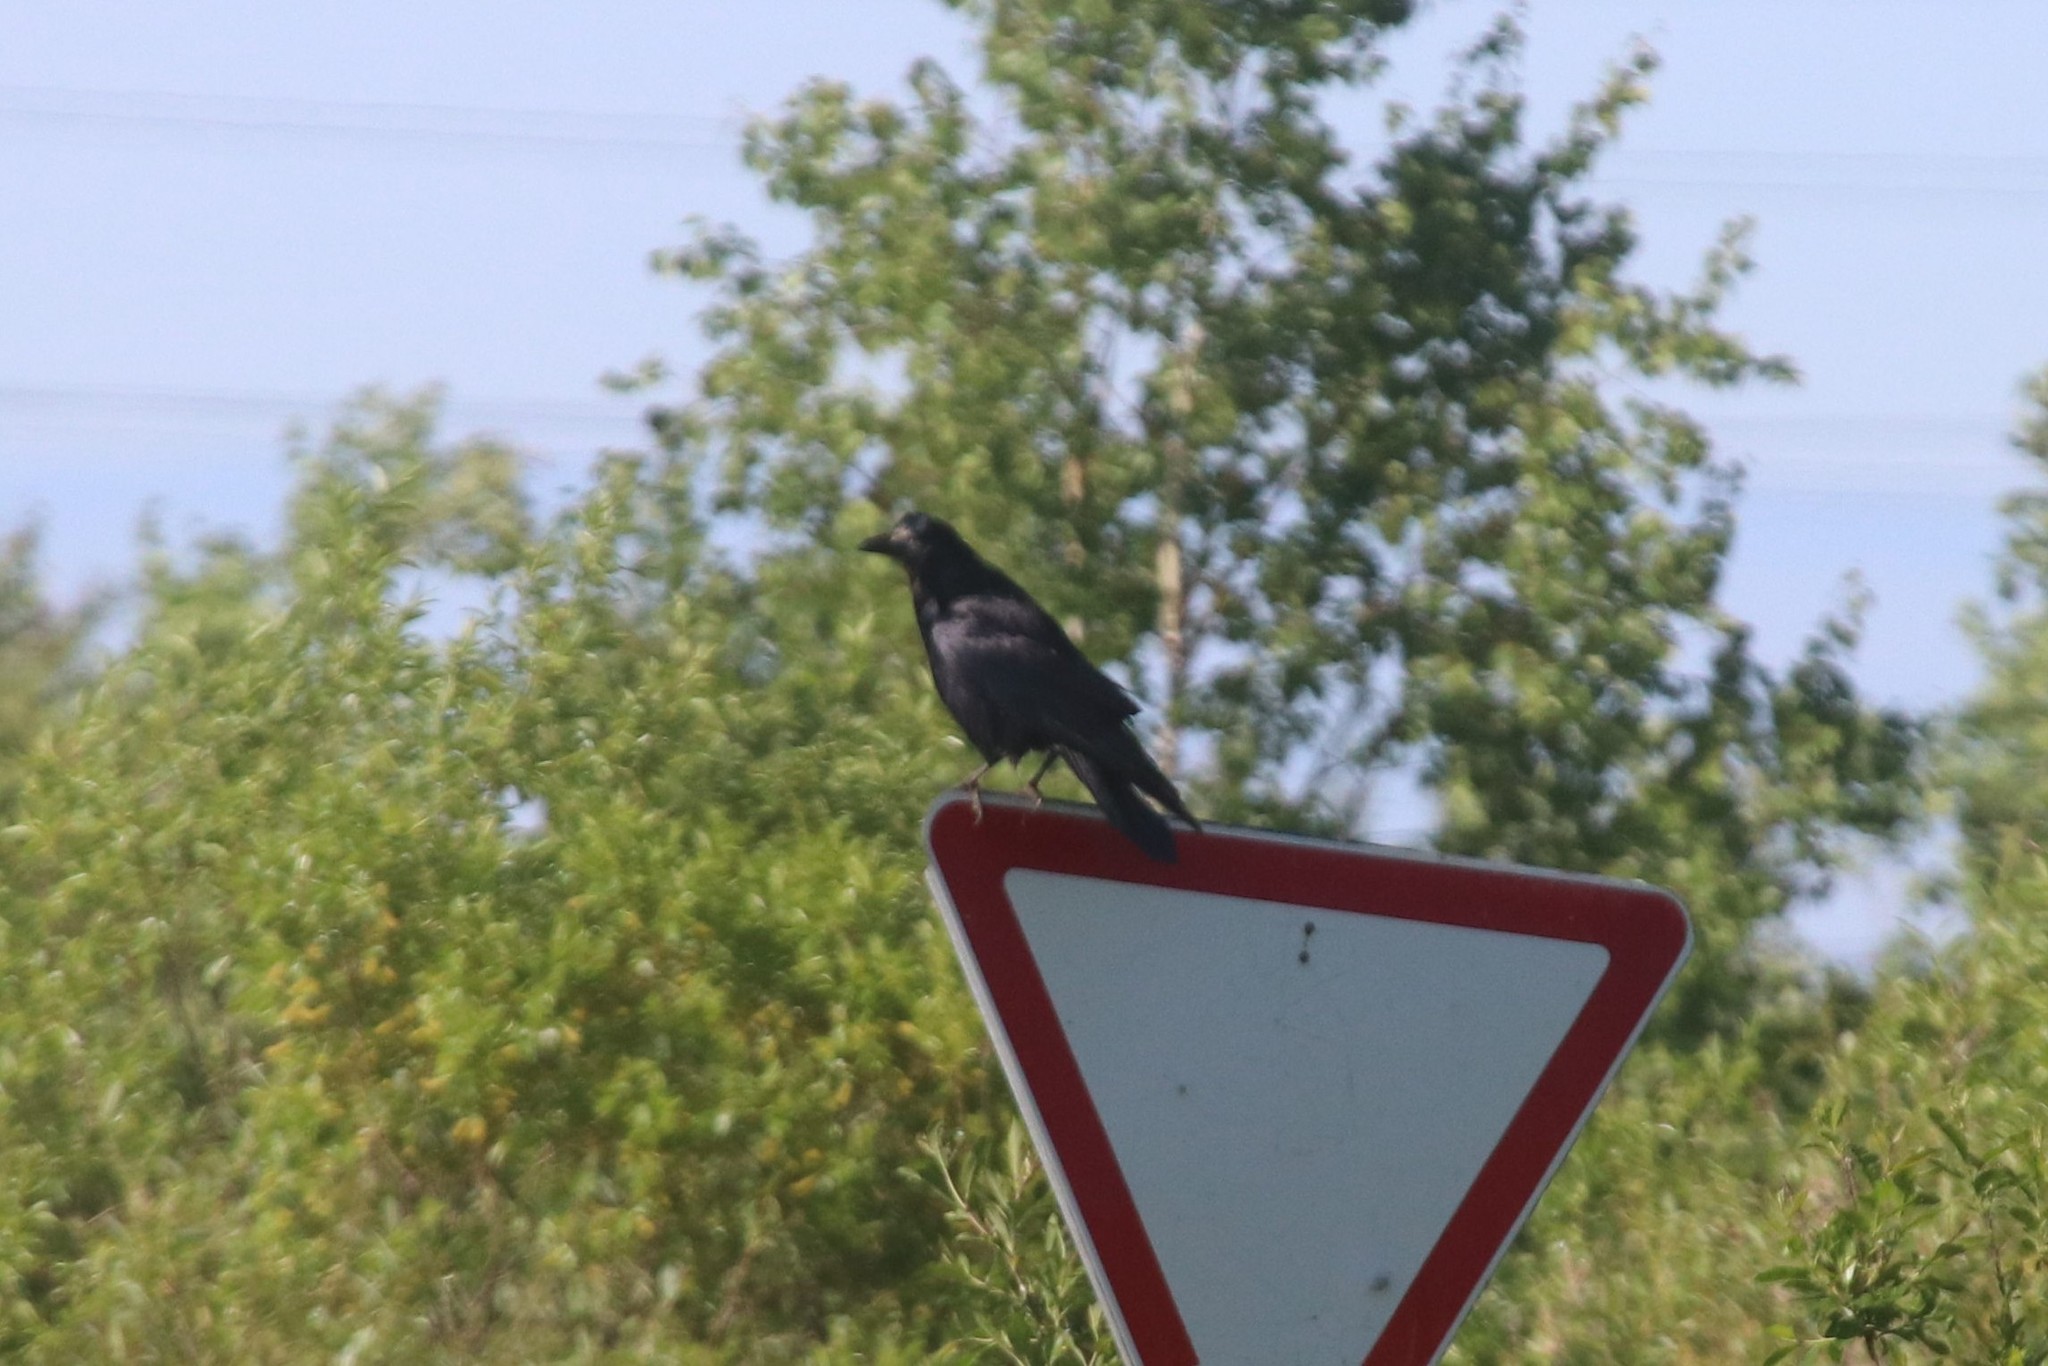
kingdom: Animalia
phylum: Chordata
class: Aves
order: Passeriformes
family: Corvidae
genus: Corvus
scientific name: Corvus frugilegus
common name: Rook
